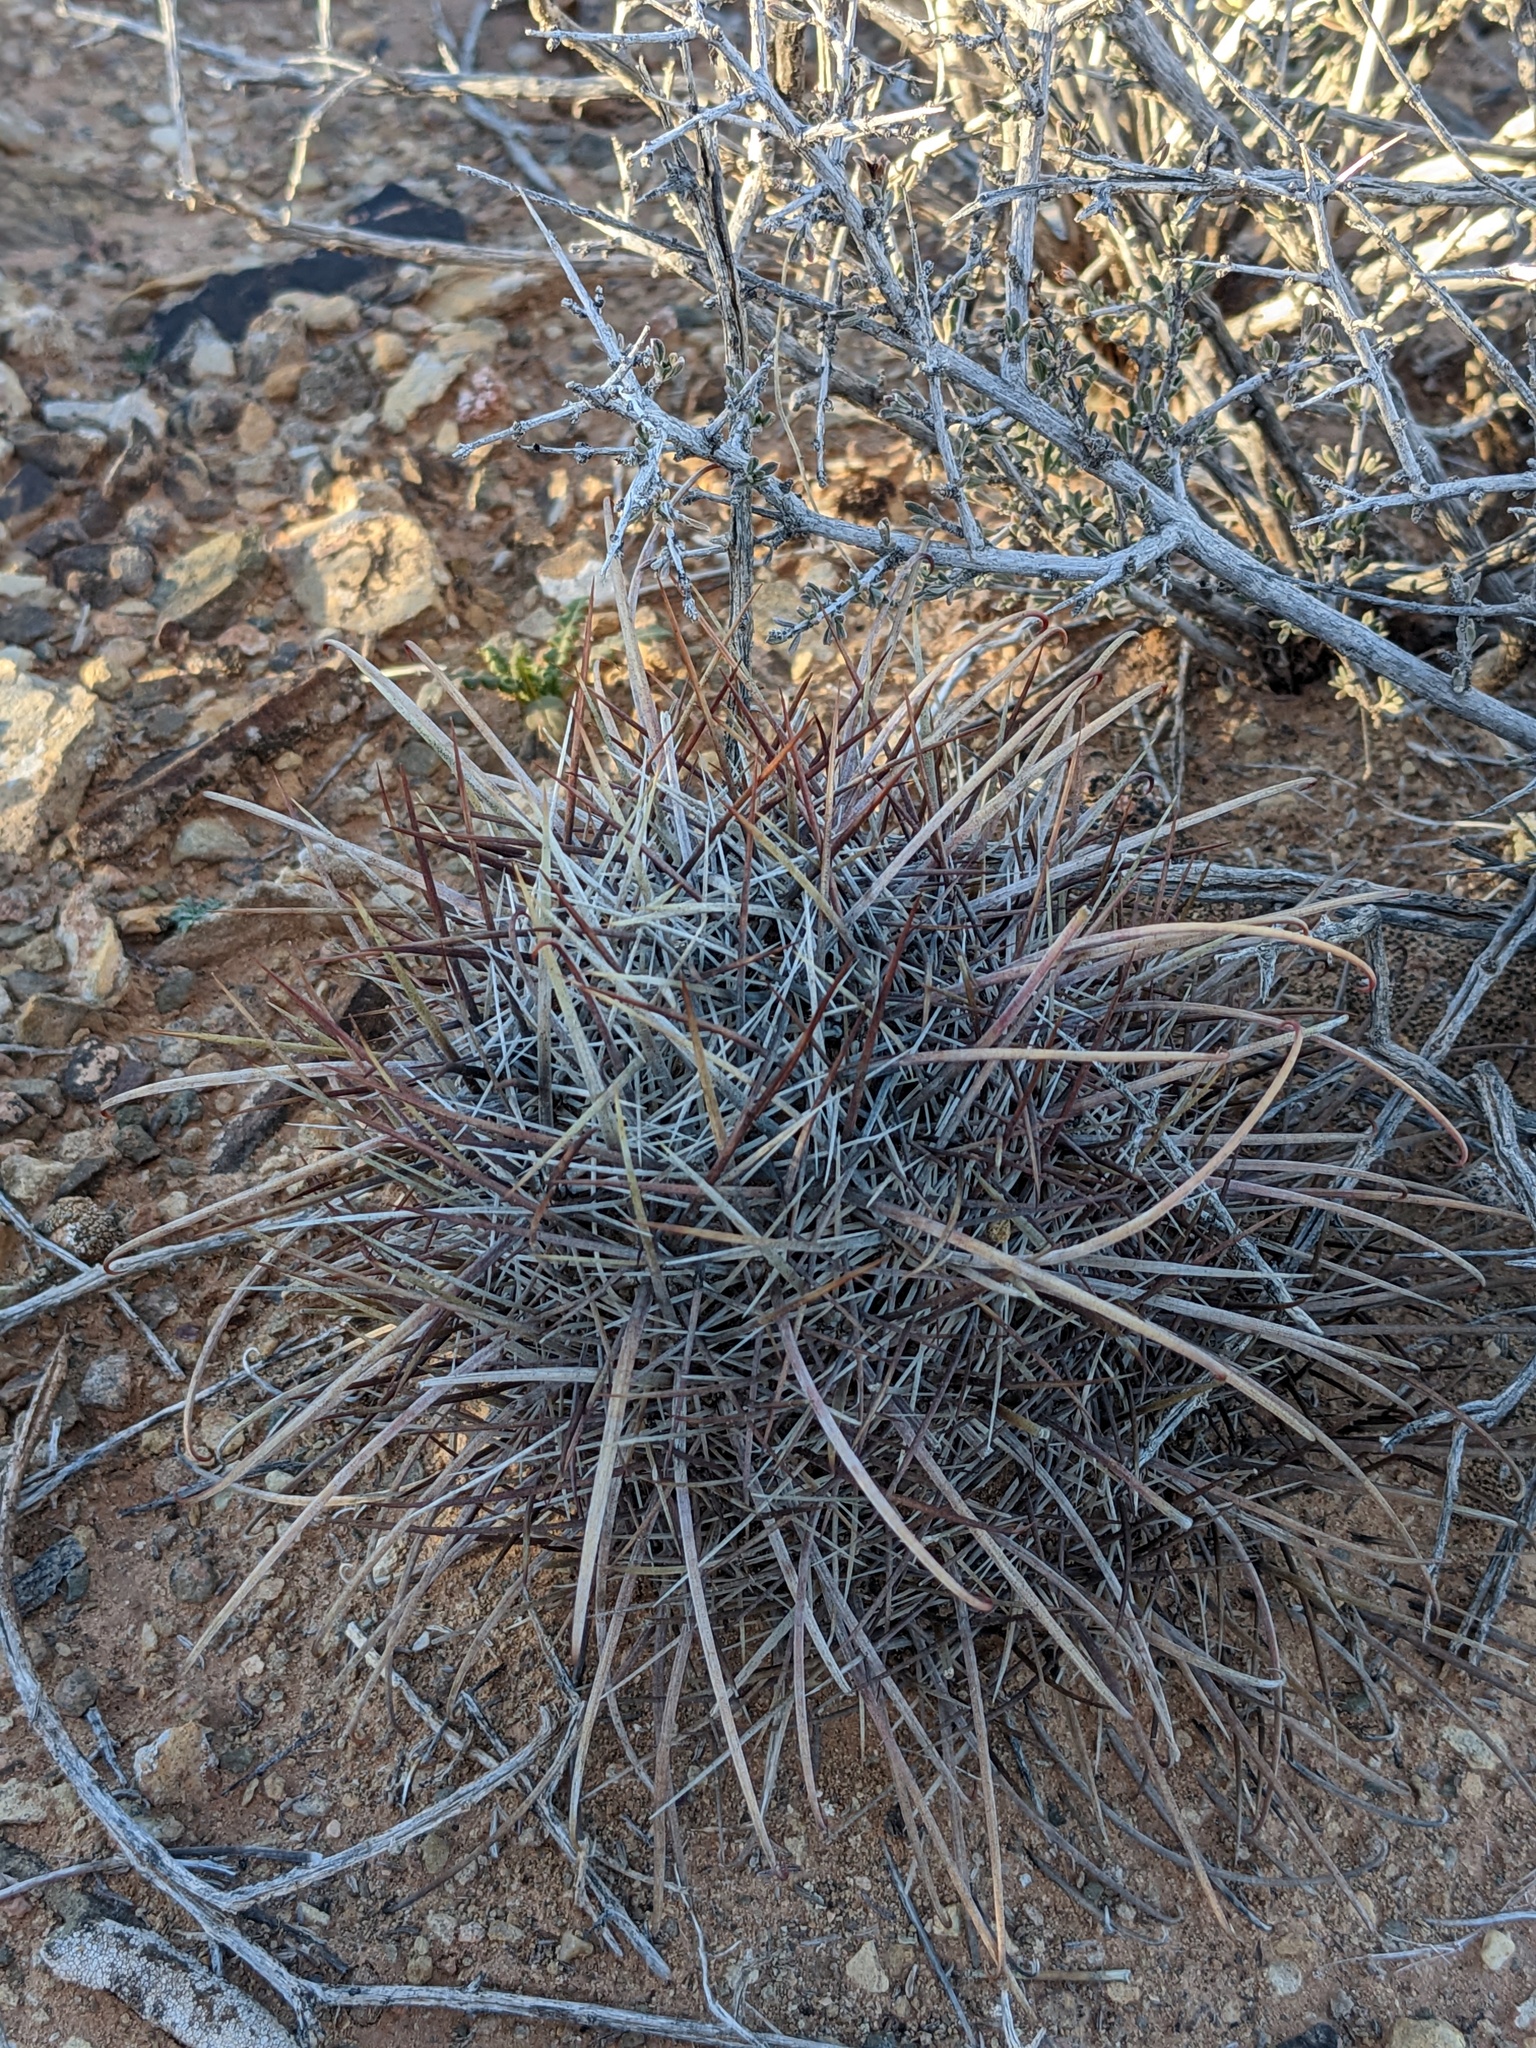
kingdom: Plantae
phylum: Tracheophyta
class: Magnoliopsida
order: Caryophyllales
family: Cactaceae
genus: Sclerocactus
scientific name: Sclerocactus parviflorus
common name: Small-flower fishhook cactus
